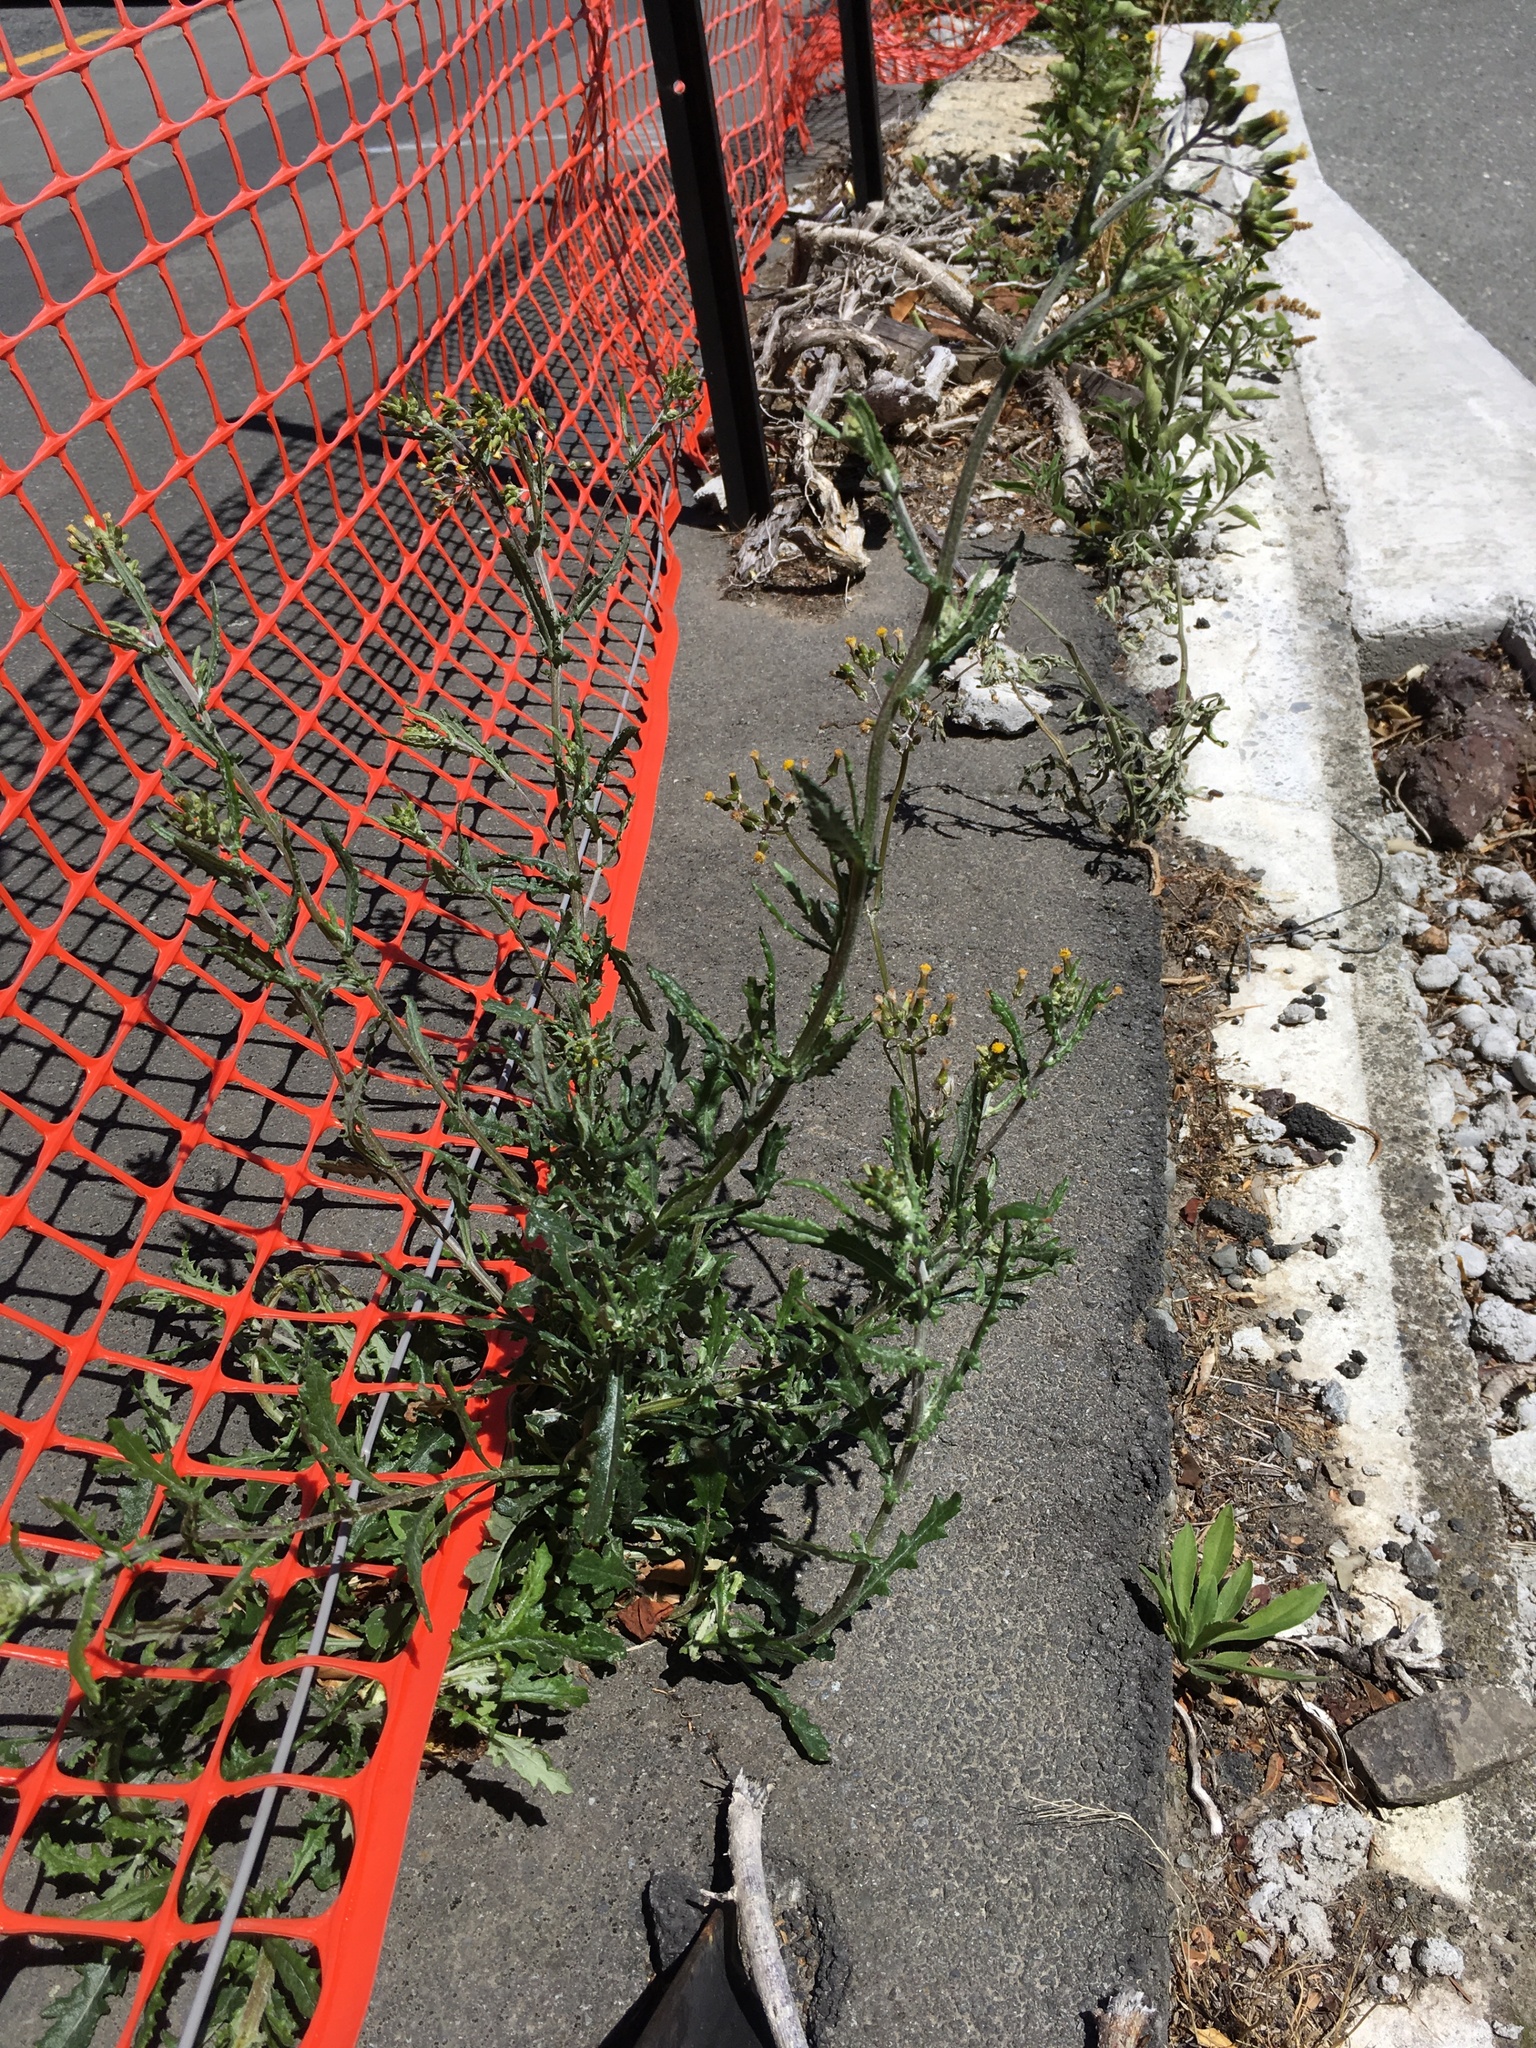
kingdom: Plantae
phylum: Tracheophyta
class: Magnoliopsida
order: Asterales
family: Asteraceae
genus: Senecio
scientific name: Senecio glomeratus
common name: Cutleaf burnweed
